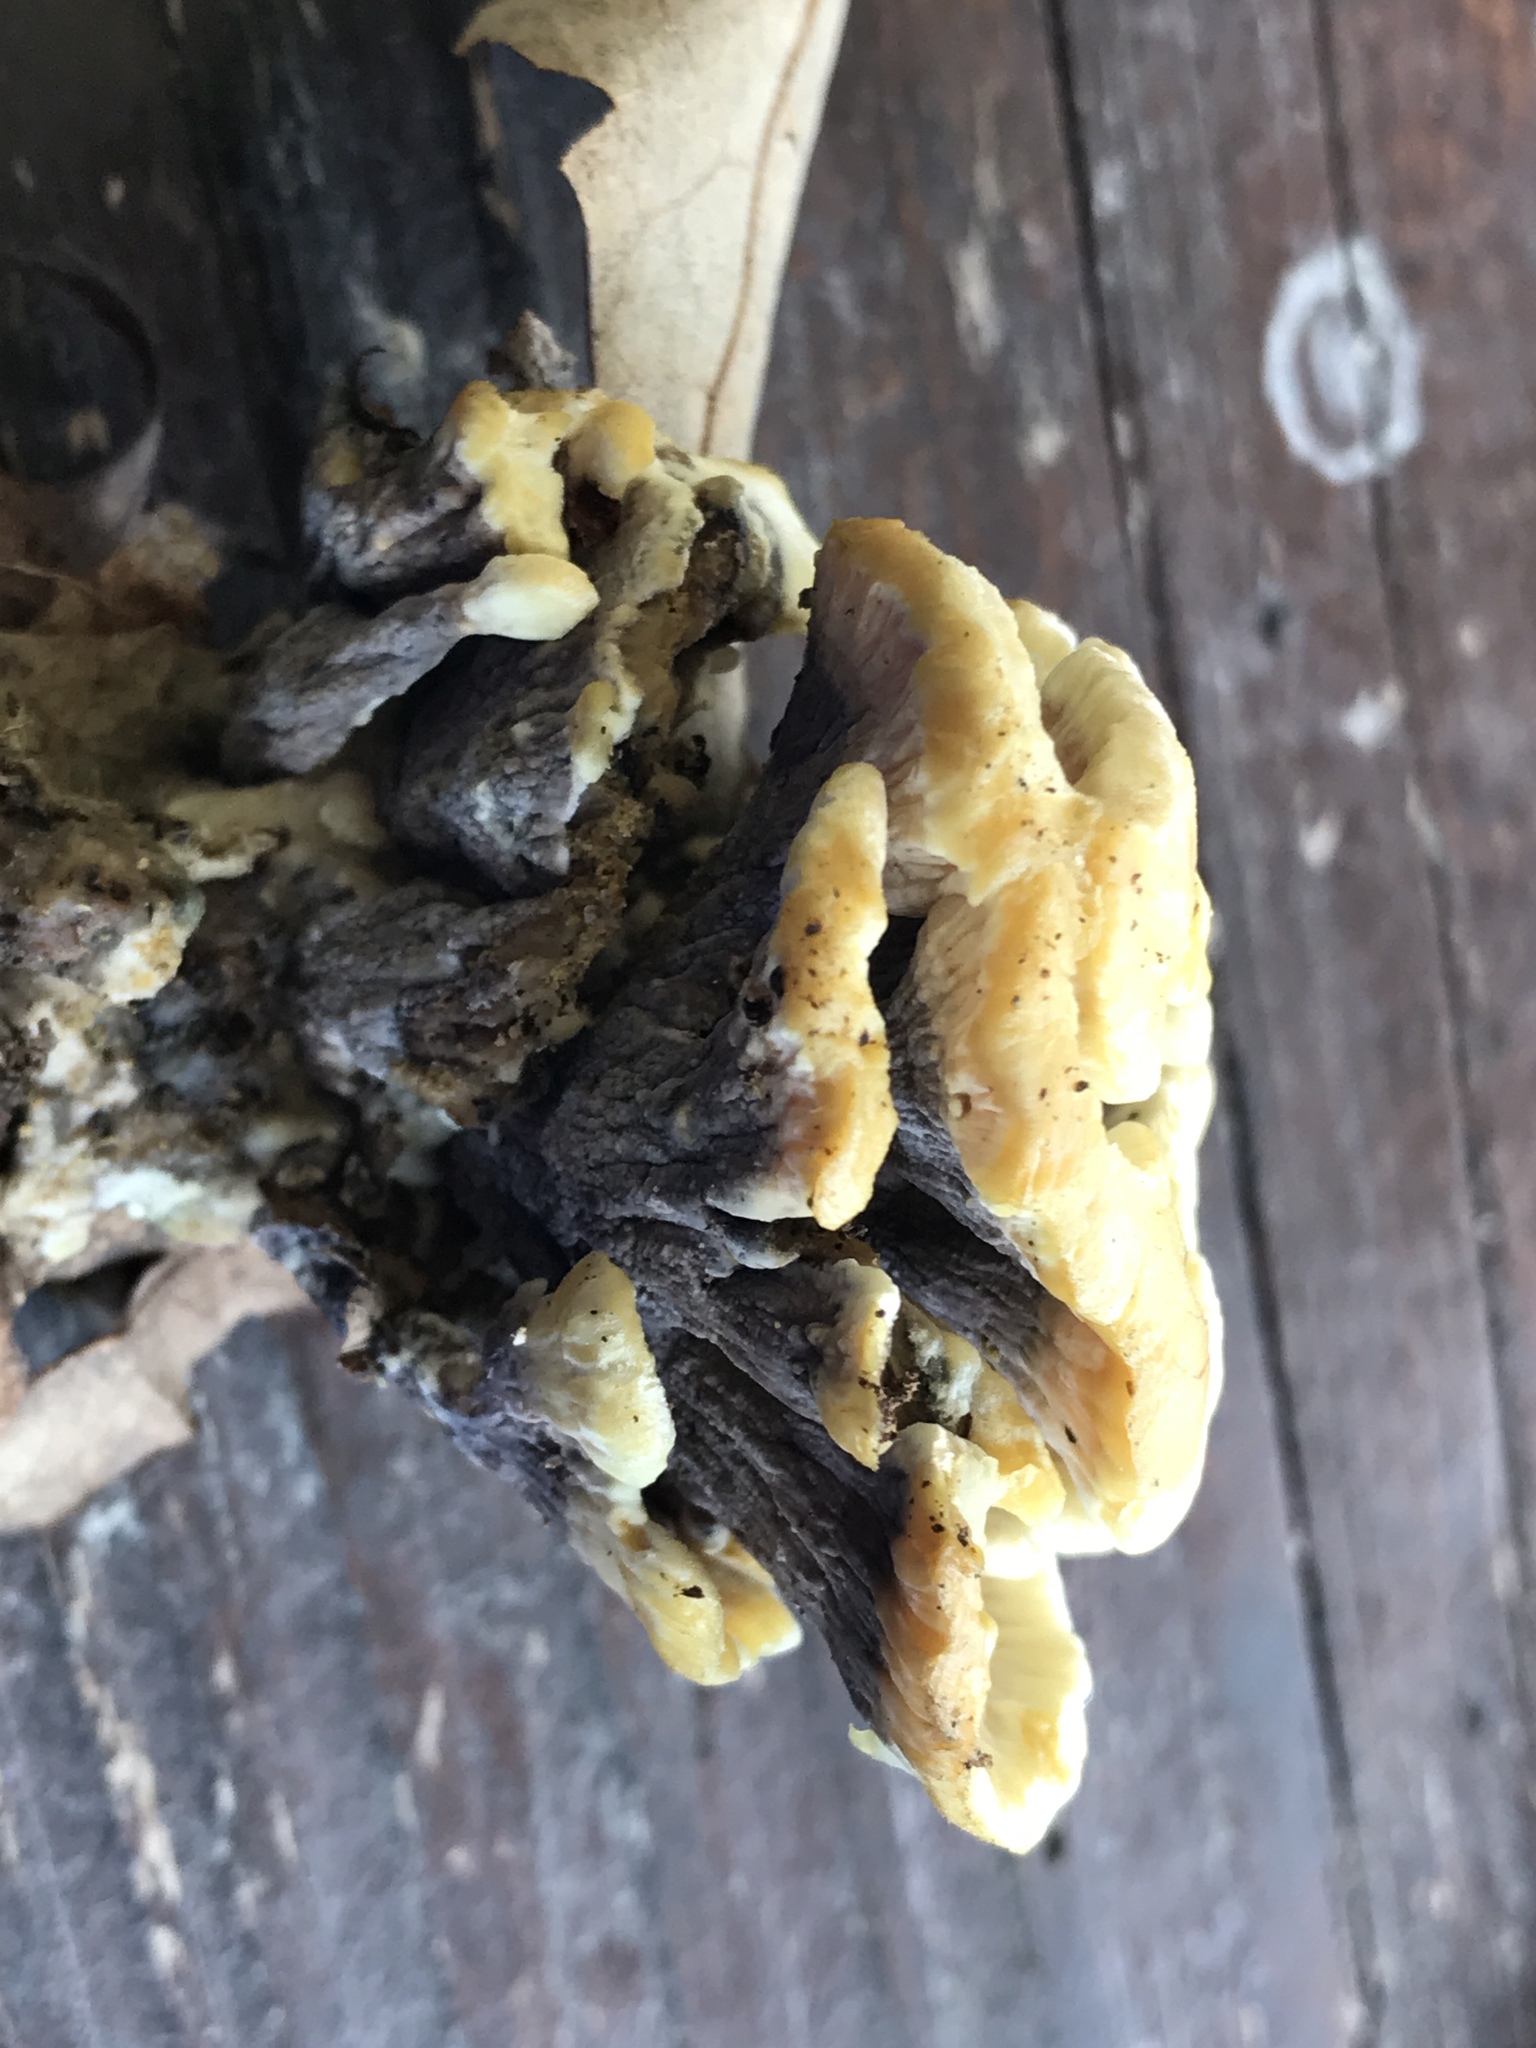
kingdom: Fungi
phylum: Basidiomycota
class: Agaricomycetes
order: Thelephorales
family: Thelephoraceae
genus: Thelephora
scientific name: Thelephora vialis
